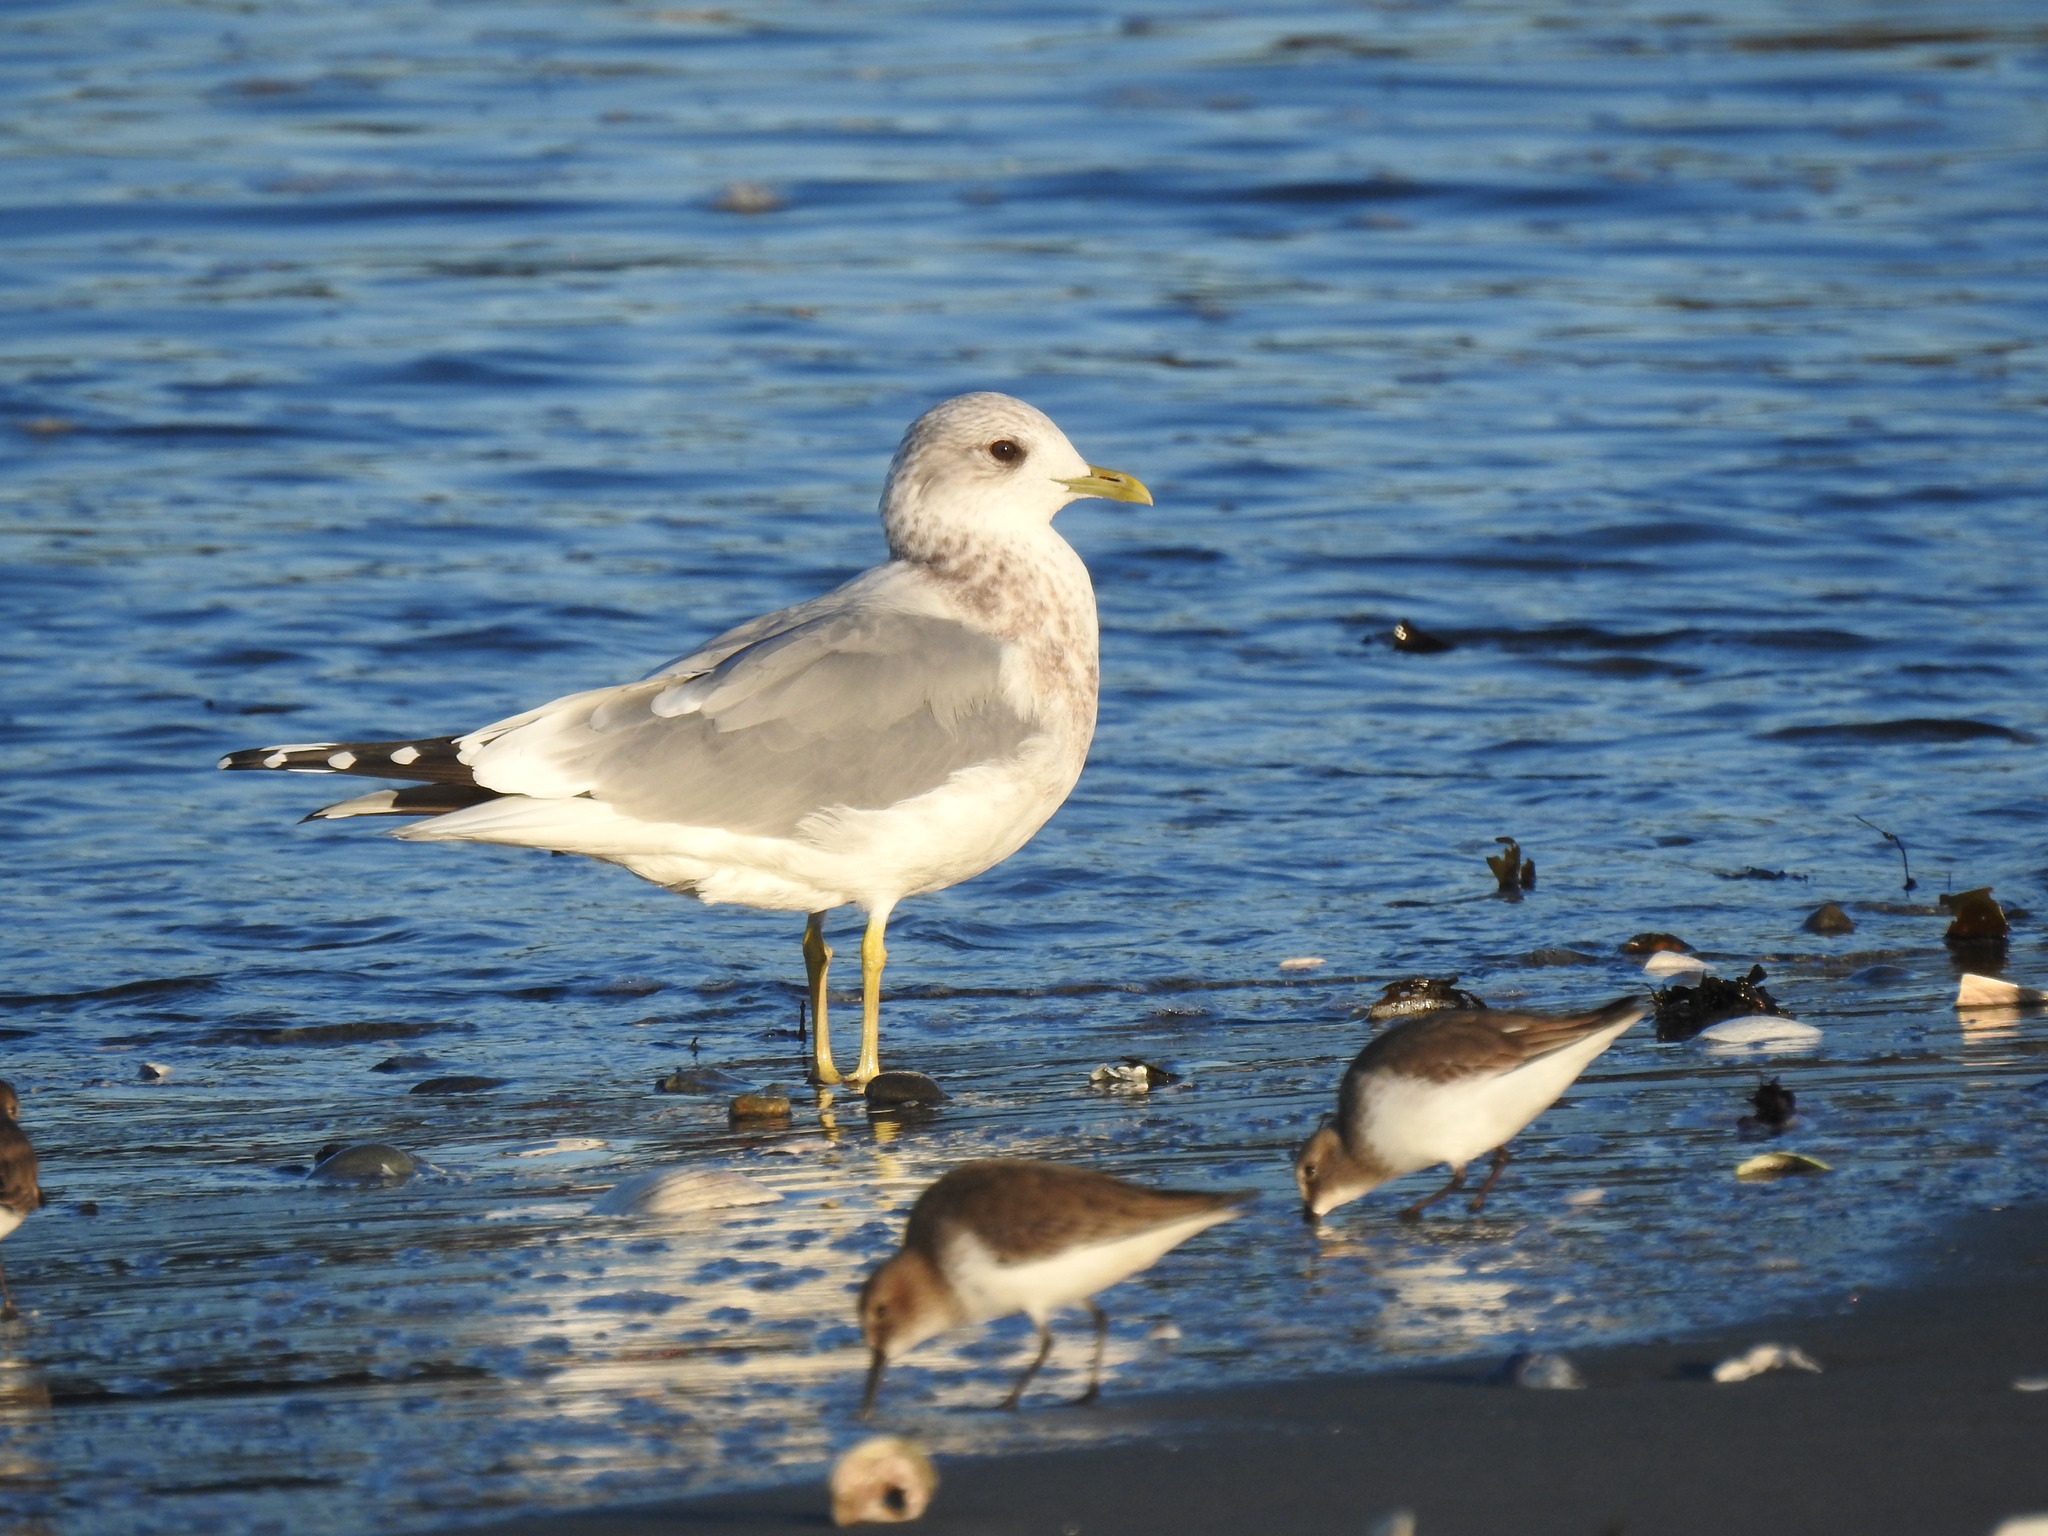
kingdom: Animalia
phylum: Chordata
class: Aves
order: Charadriiformes
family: Laridae
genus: Larus
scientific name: Larus brachyrhynchus
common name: Short-billed gull
